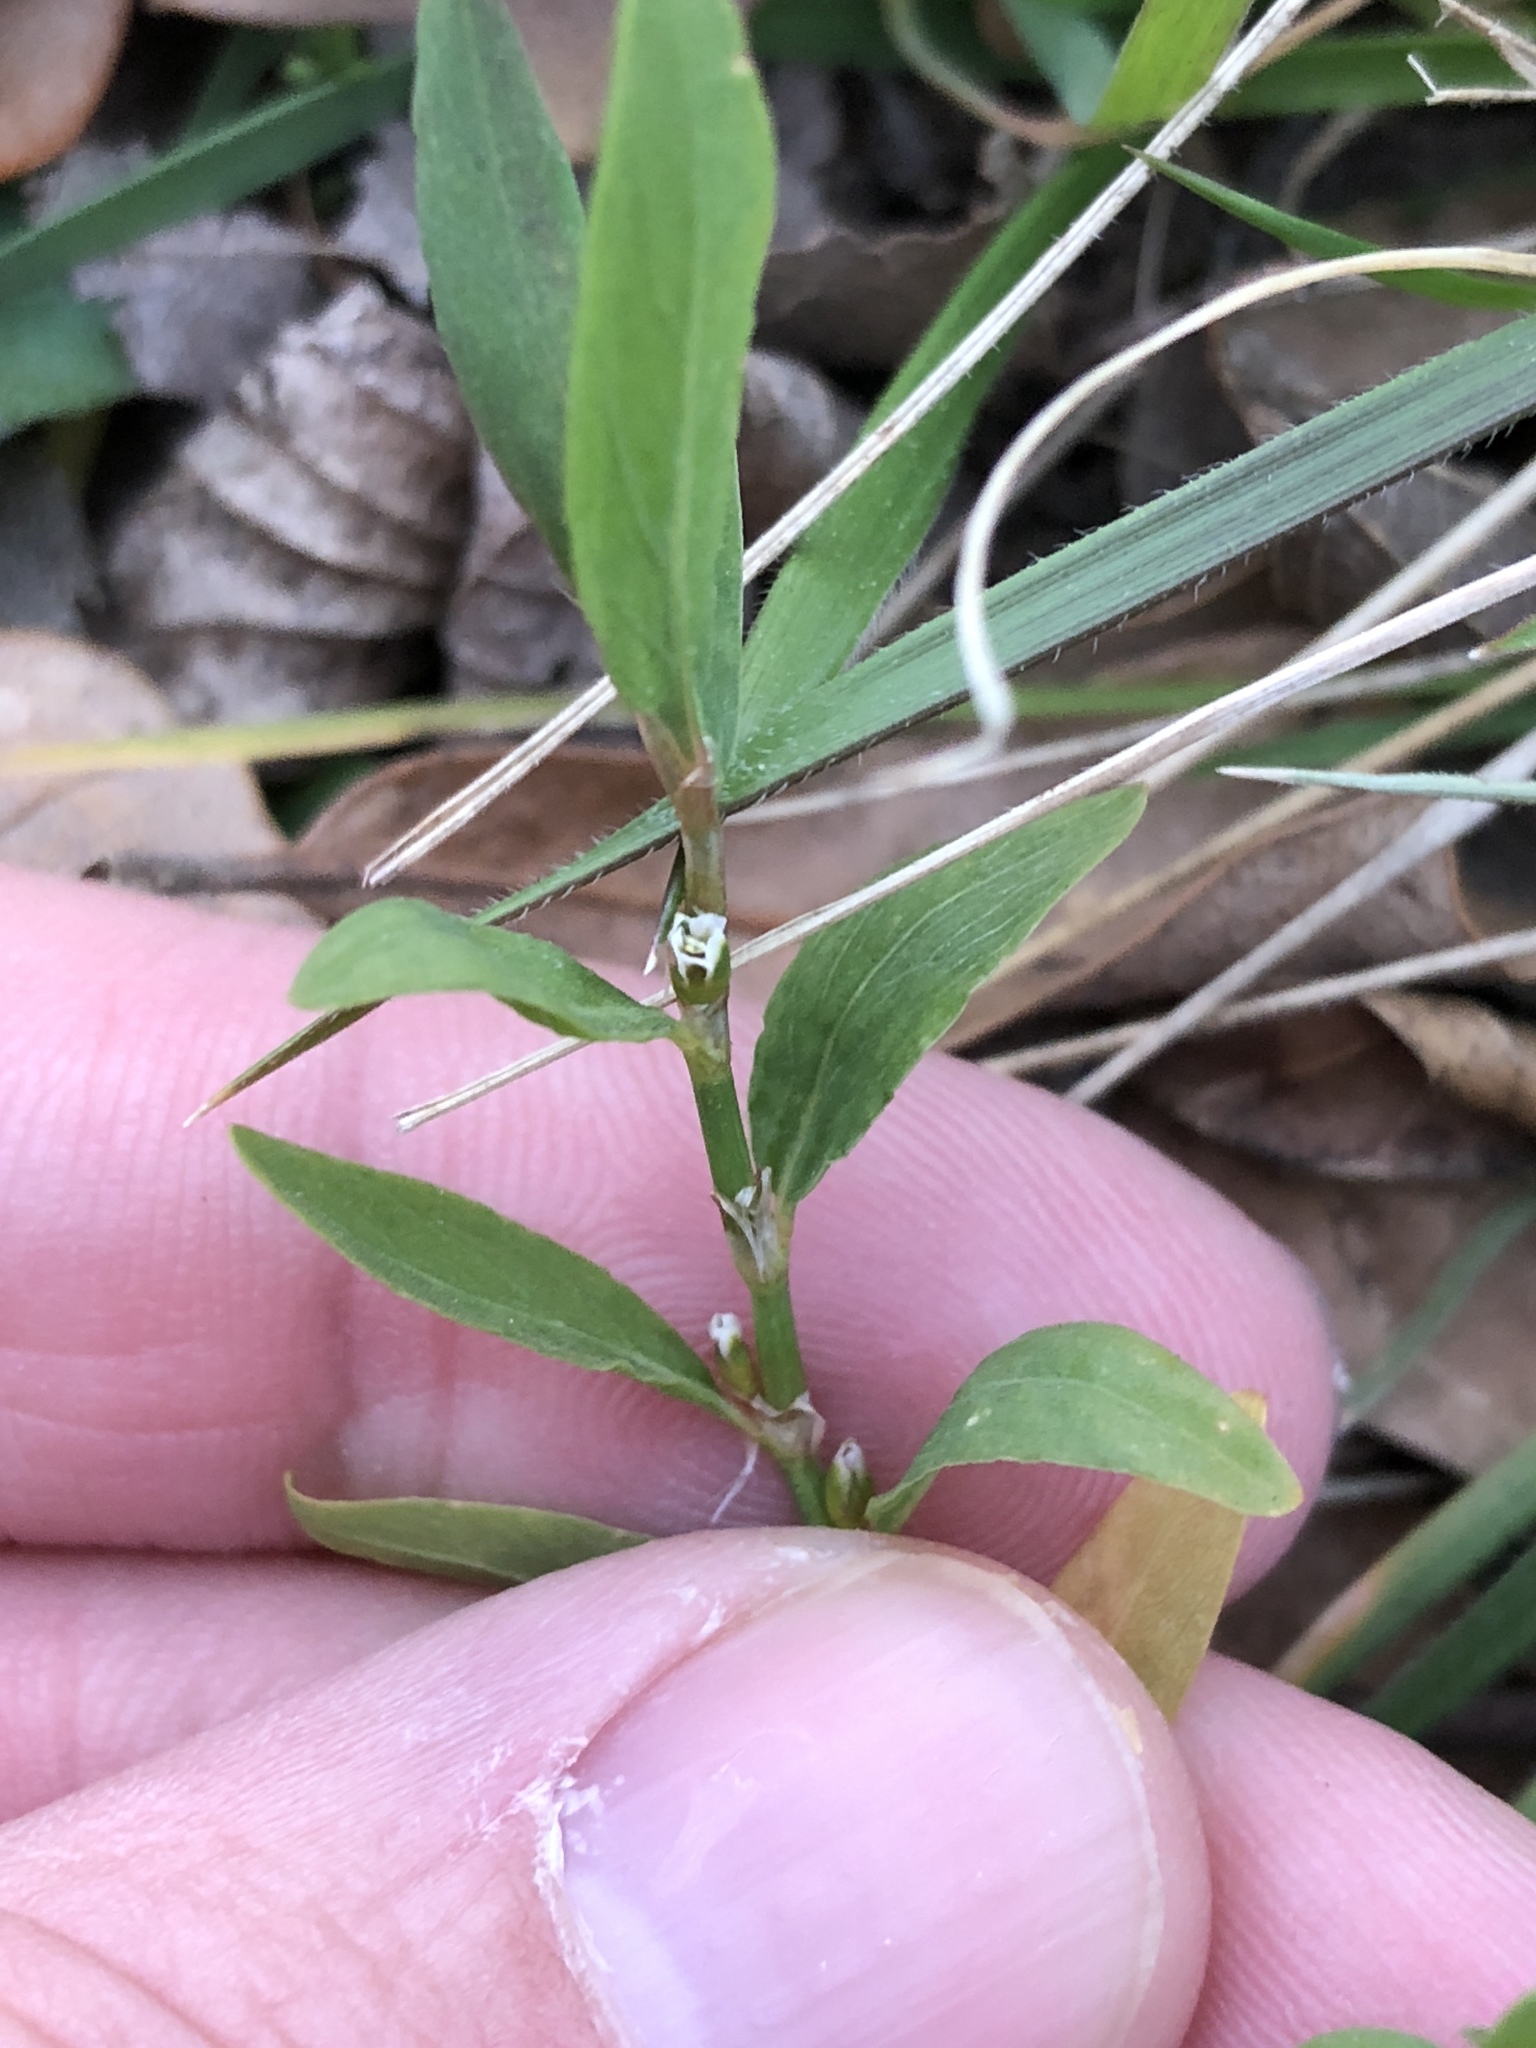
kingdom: Plantae
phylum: Tracheophyta
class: Magnoliopsida
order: Caryophyllales
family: Polygonaceae
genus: Polygonum
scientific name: Polygonum aviculare
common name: Prostrate knotweed
